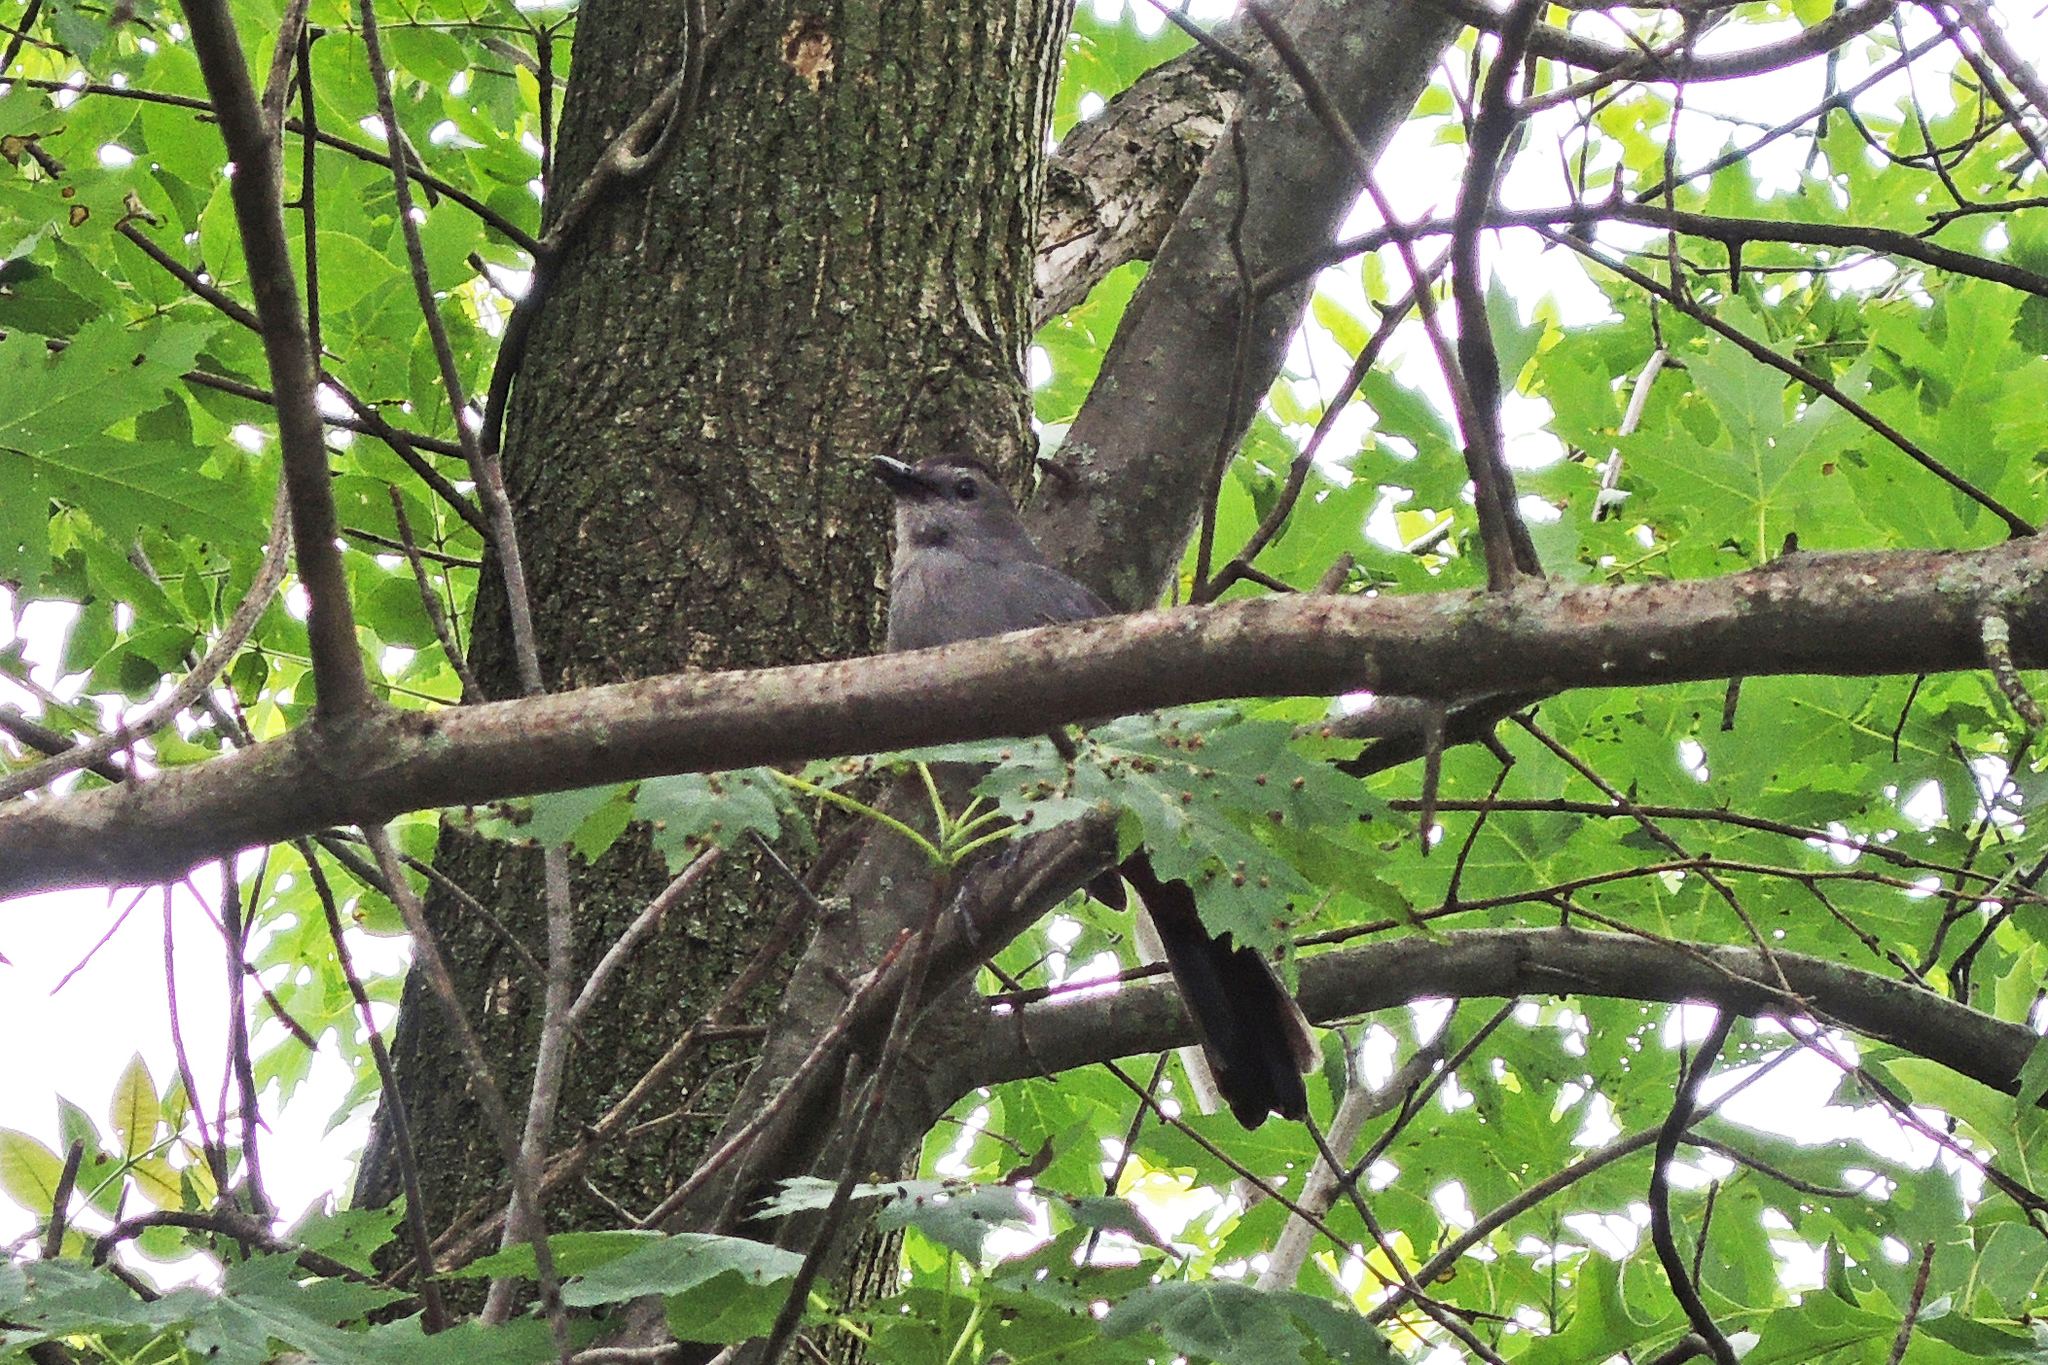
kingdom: Animalia
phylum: Chordata
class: Aves
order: Passeriformes
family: Mimidae
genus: Dumetella
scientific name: Dumetella carolinensis
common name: Gray catbird
